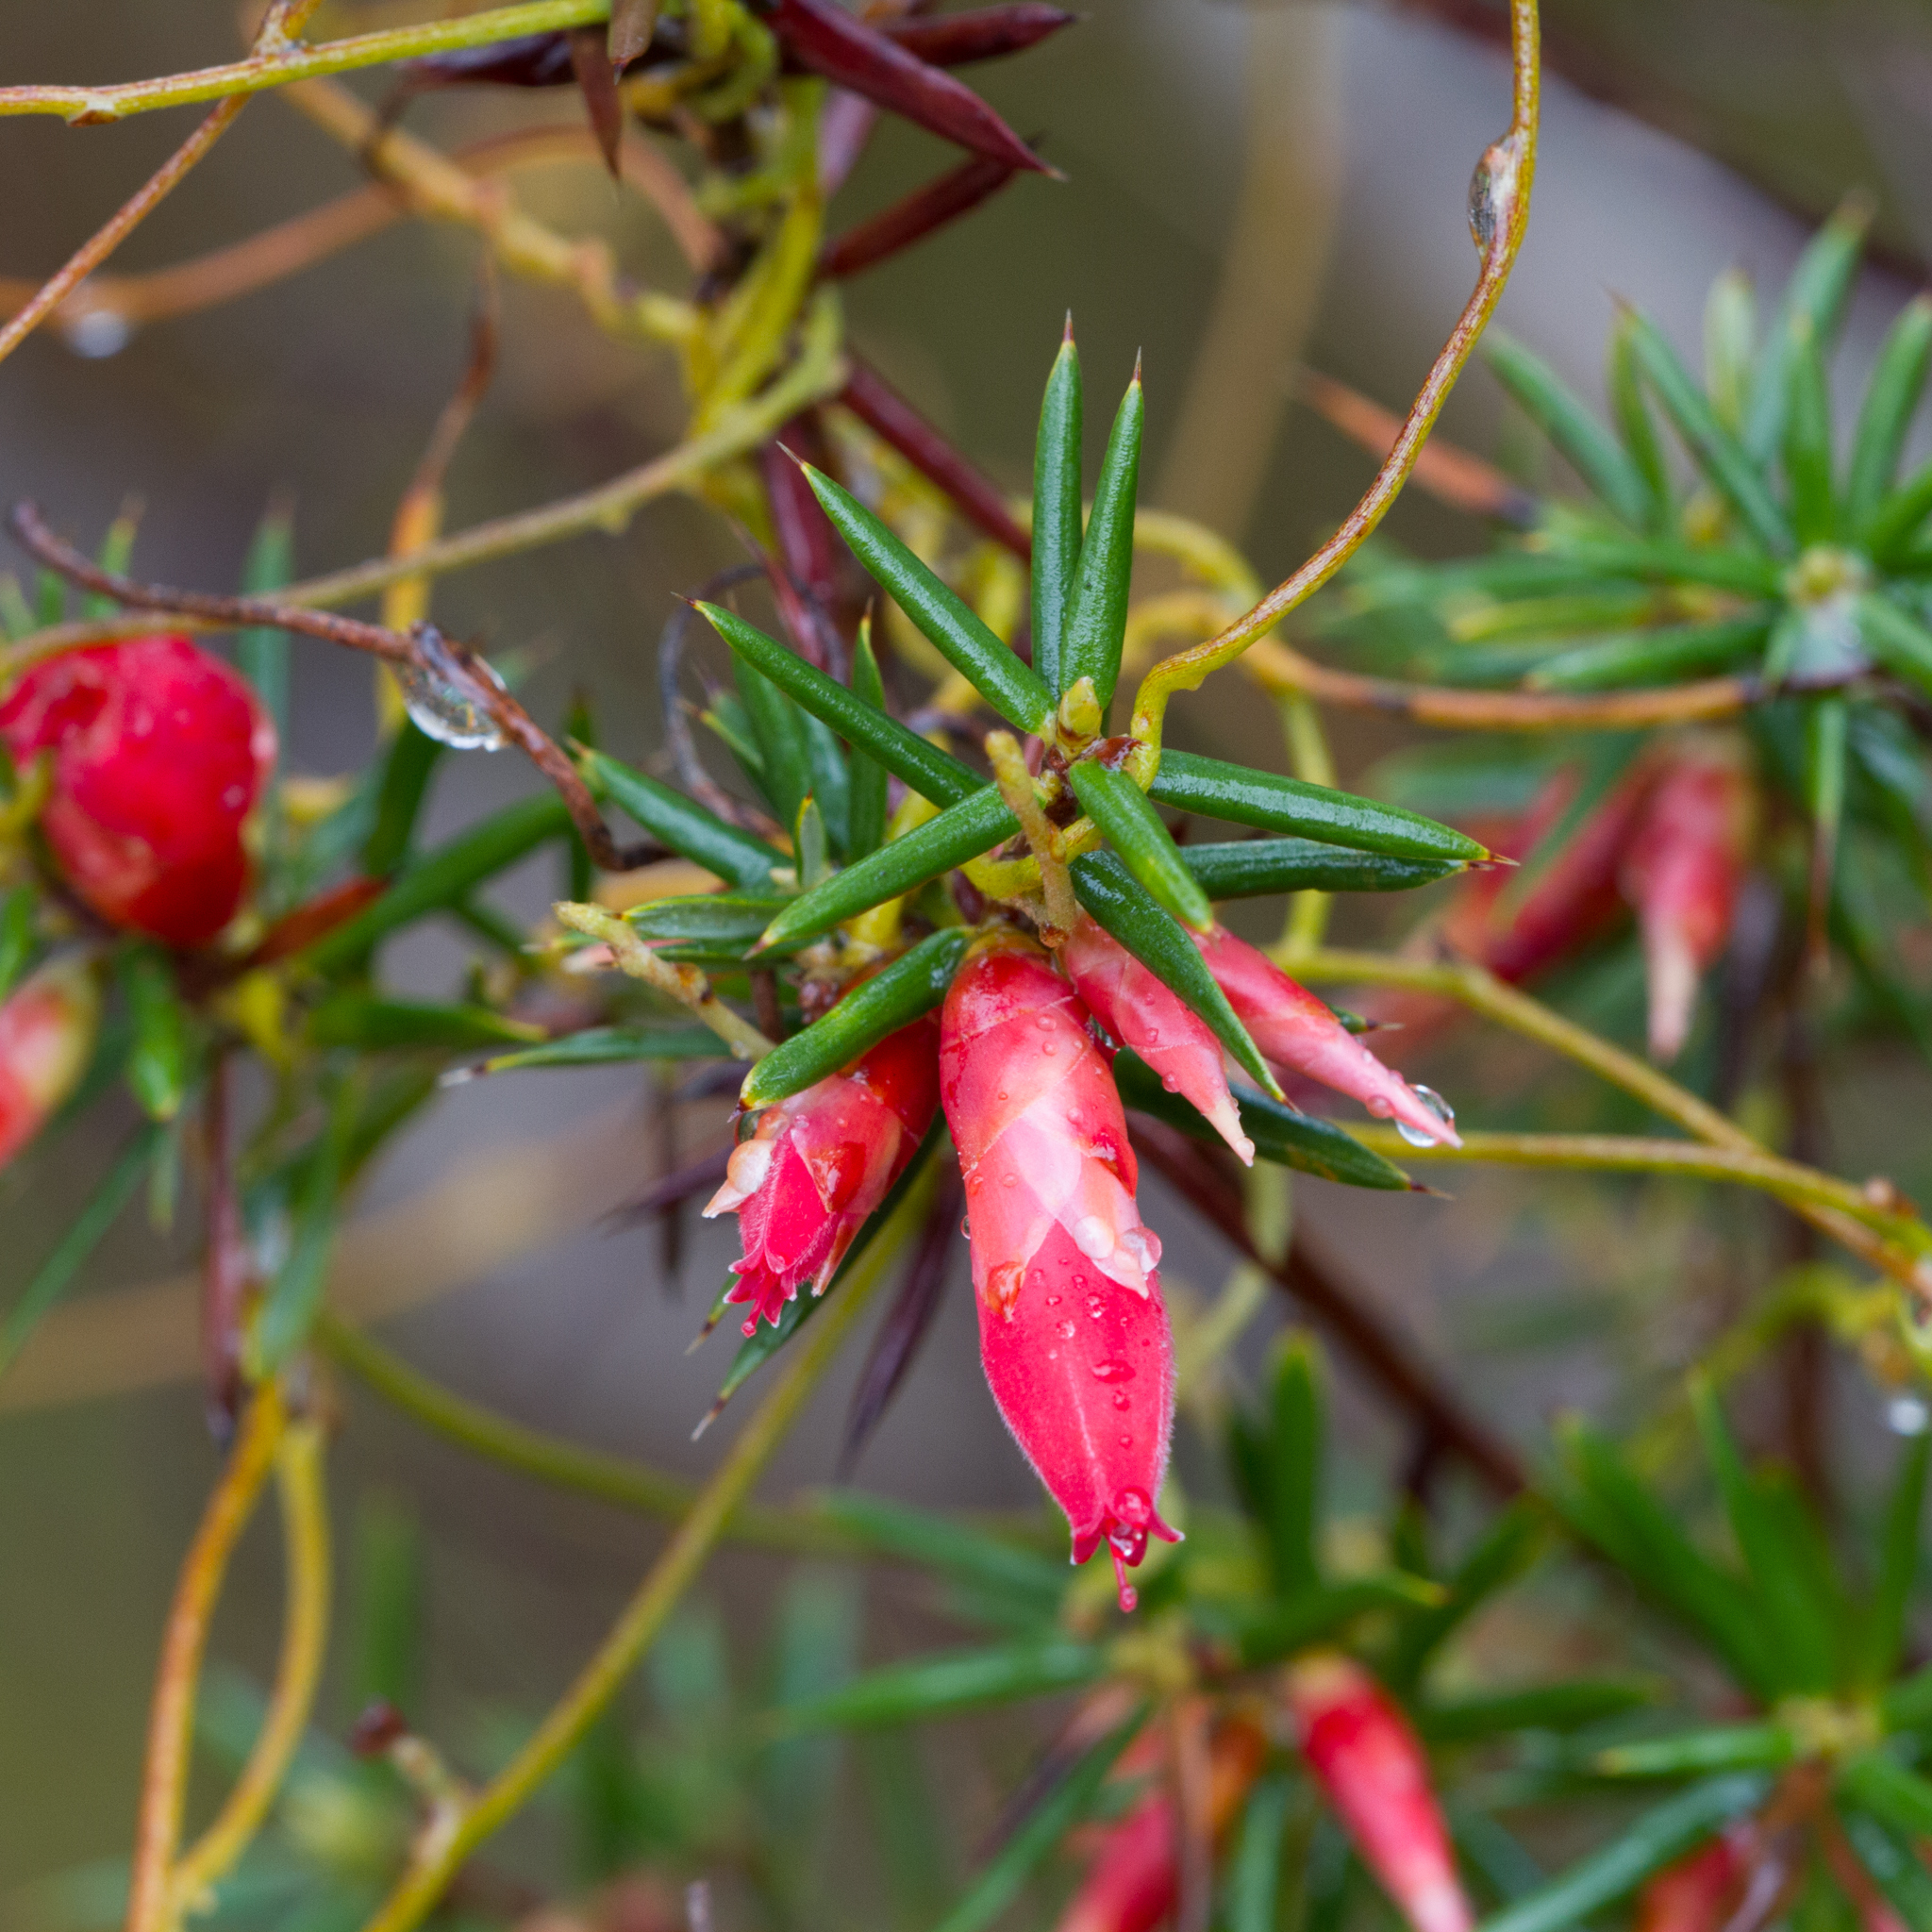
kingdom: Plantae
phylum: Tracheophyta
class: Magnoliopsida
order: Ericales
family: Ericaceae
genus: Stenanthera
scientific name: Stenanthera conostephioides
